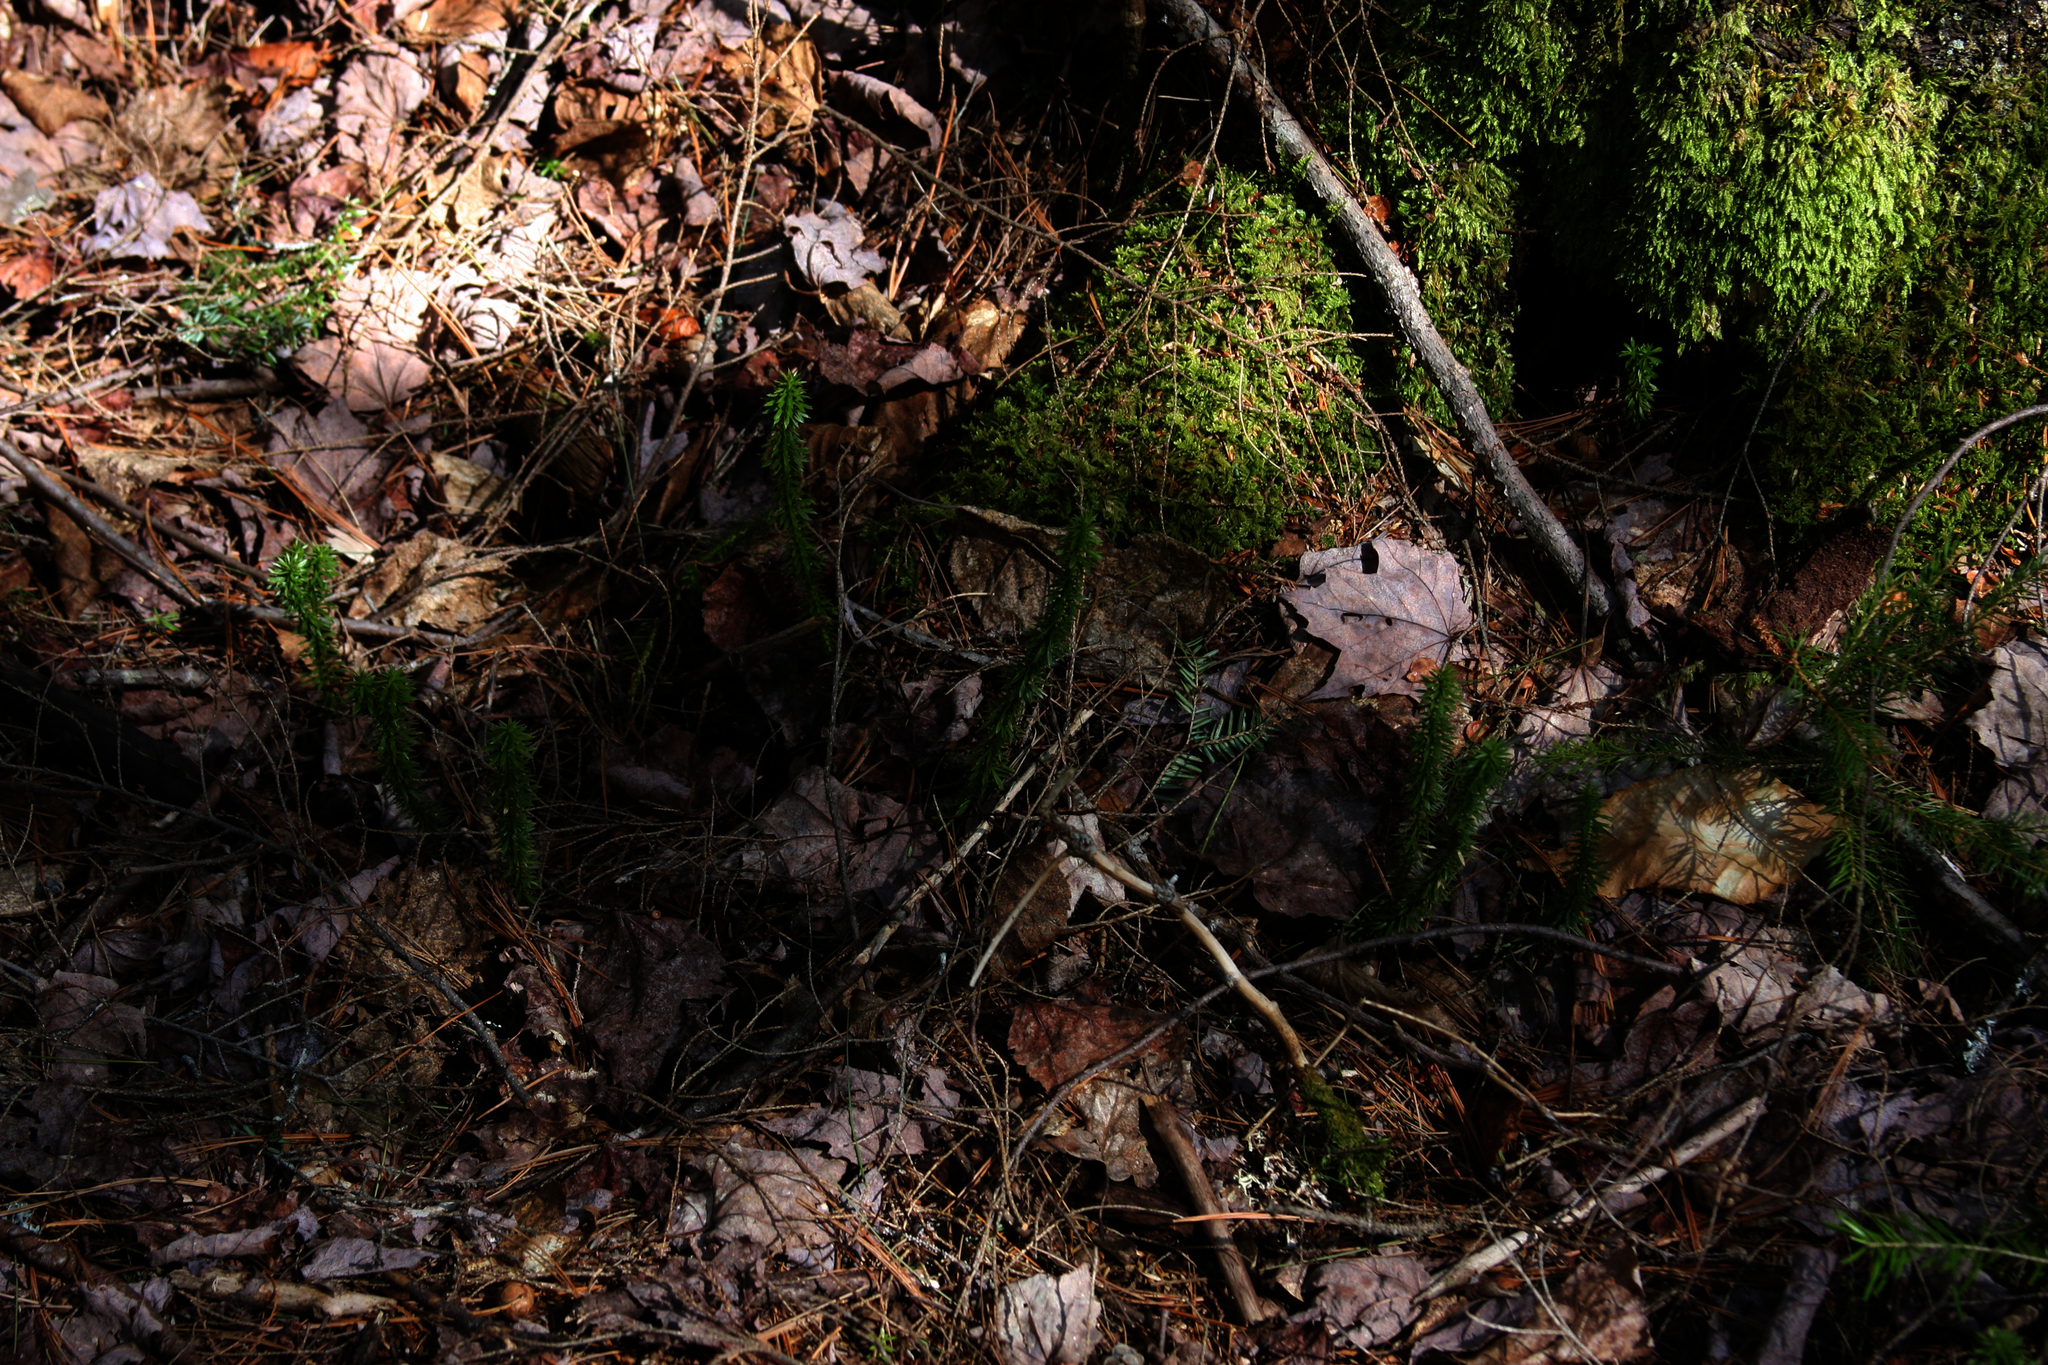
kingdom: Plantae
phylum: Tracheophyta
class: Lycopodiopsida
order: Lycopodiales
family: Lycopodiaceae
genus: Huperzia
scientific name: Huperzia lucidula
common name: Shining clubmoss
